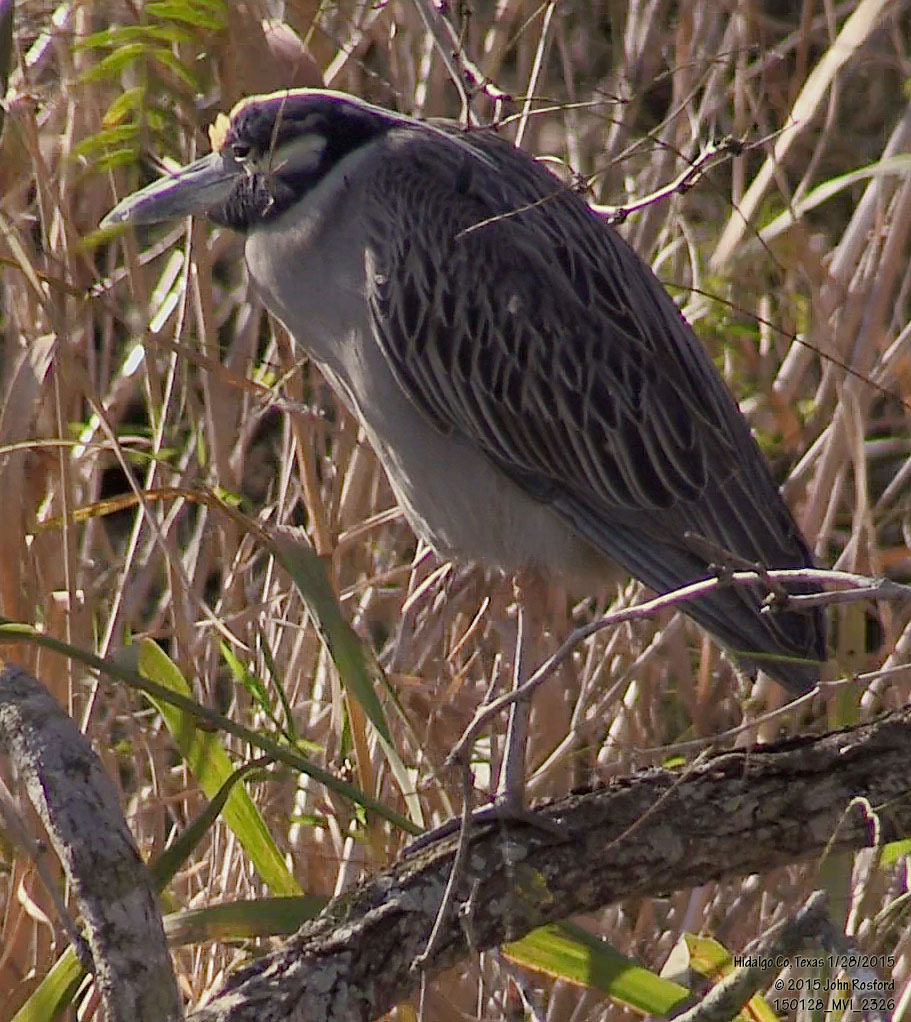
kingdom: Animalia
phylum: Chordata
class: Aves
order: Pelecaniformes
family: Ardeidae
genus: Nyctanassa
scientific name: Nyctanassa violacea
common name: Yellow-crowned night heron
